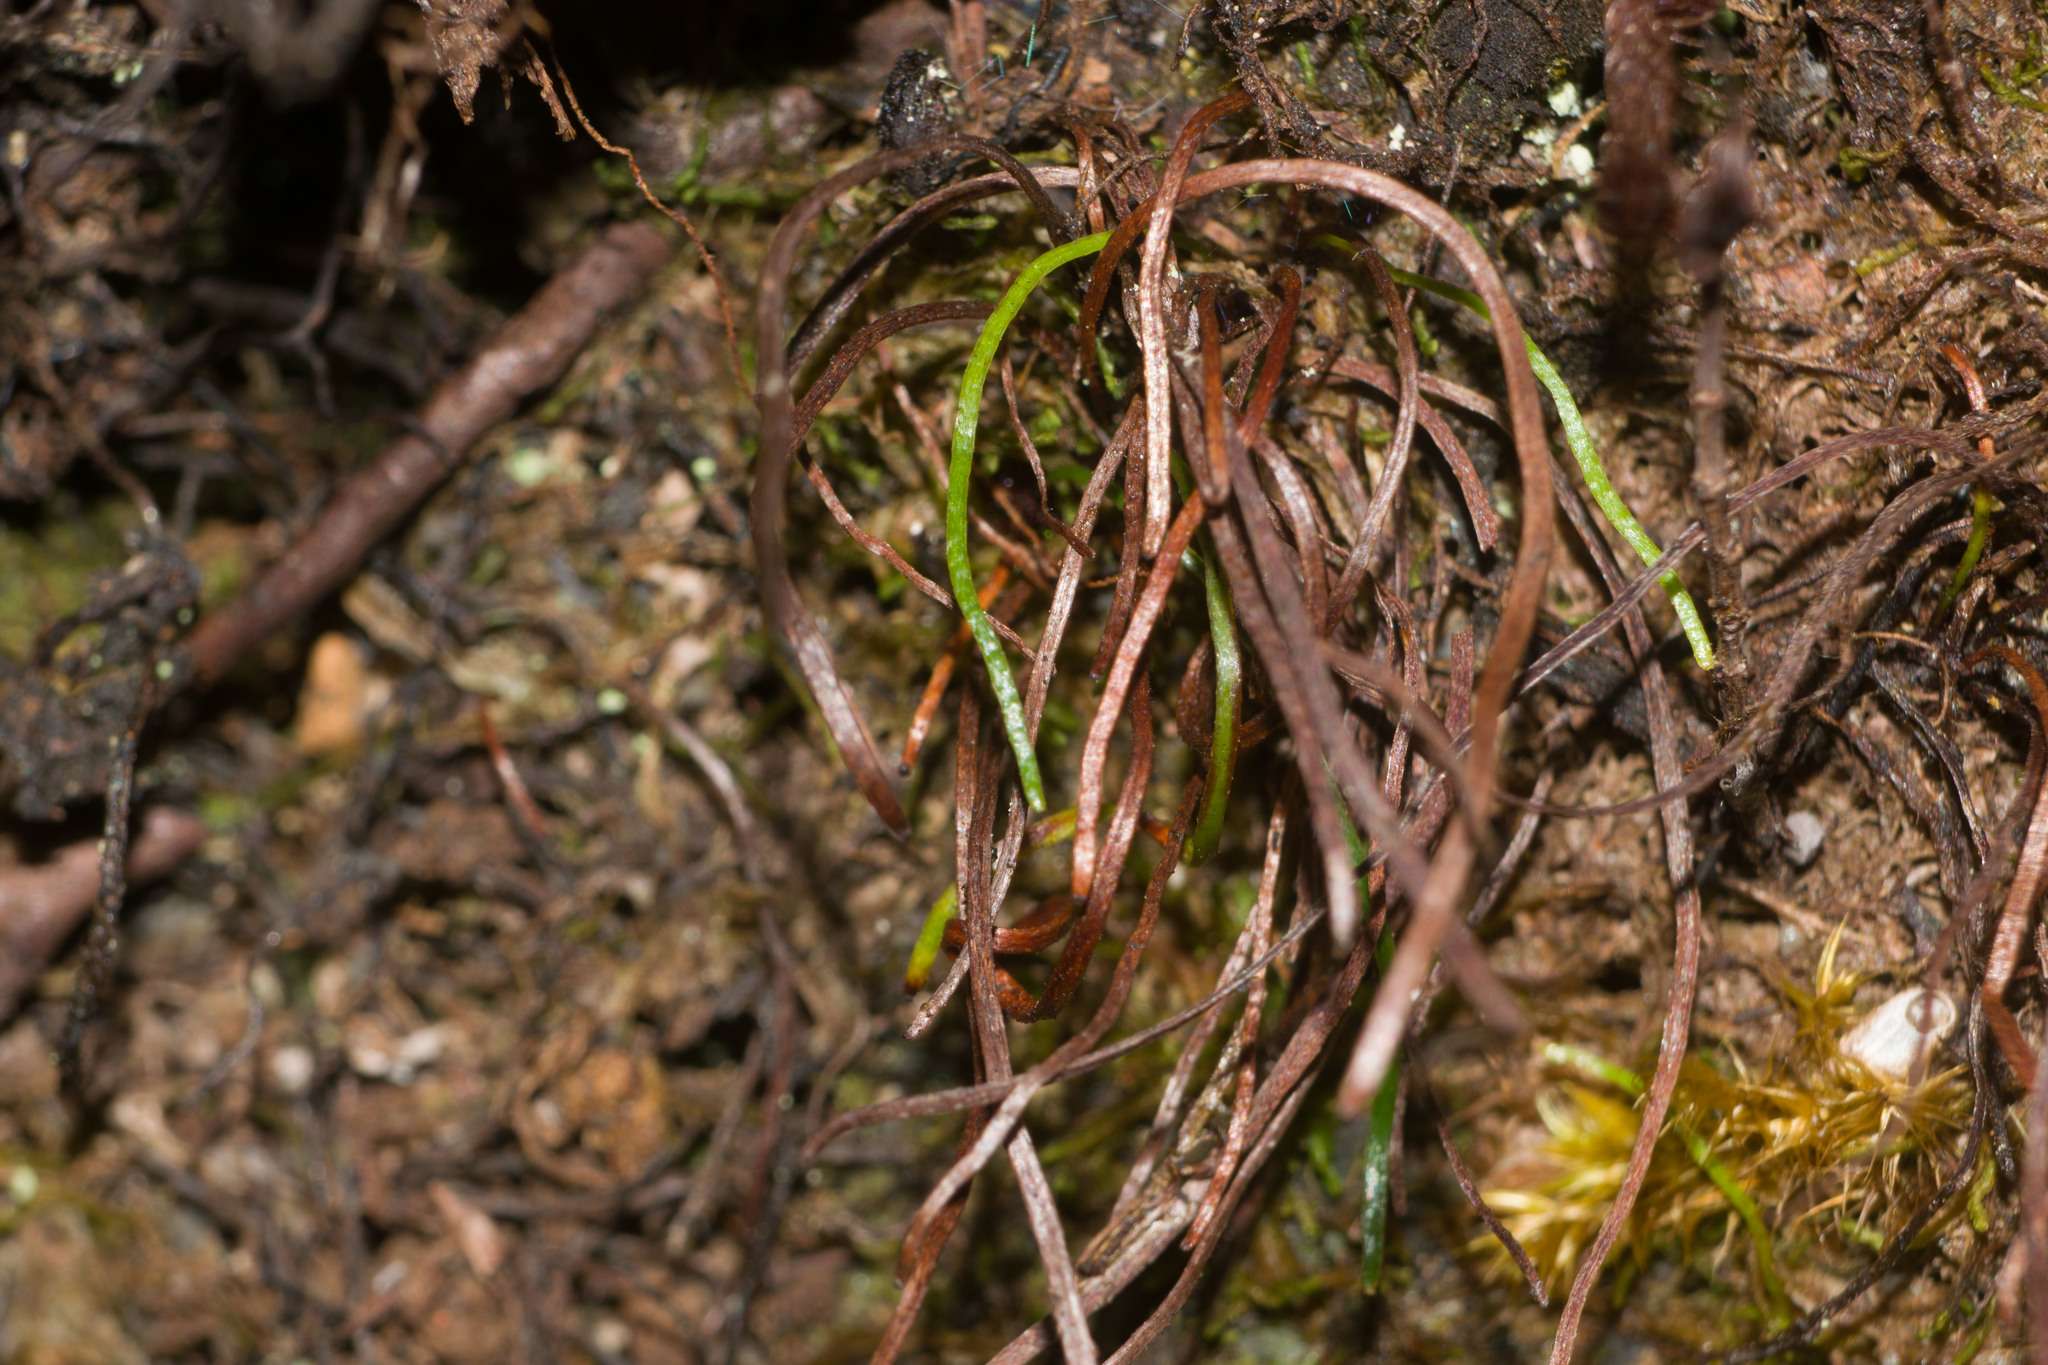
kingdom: Plantae
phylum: Tracheophyta
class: Polypodiopsida
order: Schizaeales
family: Schizaeaceae
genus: Microschizaea
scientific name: Microschizaea robusta
